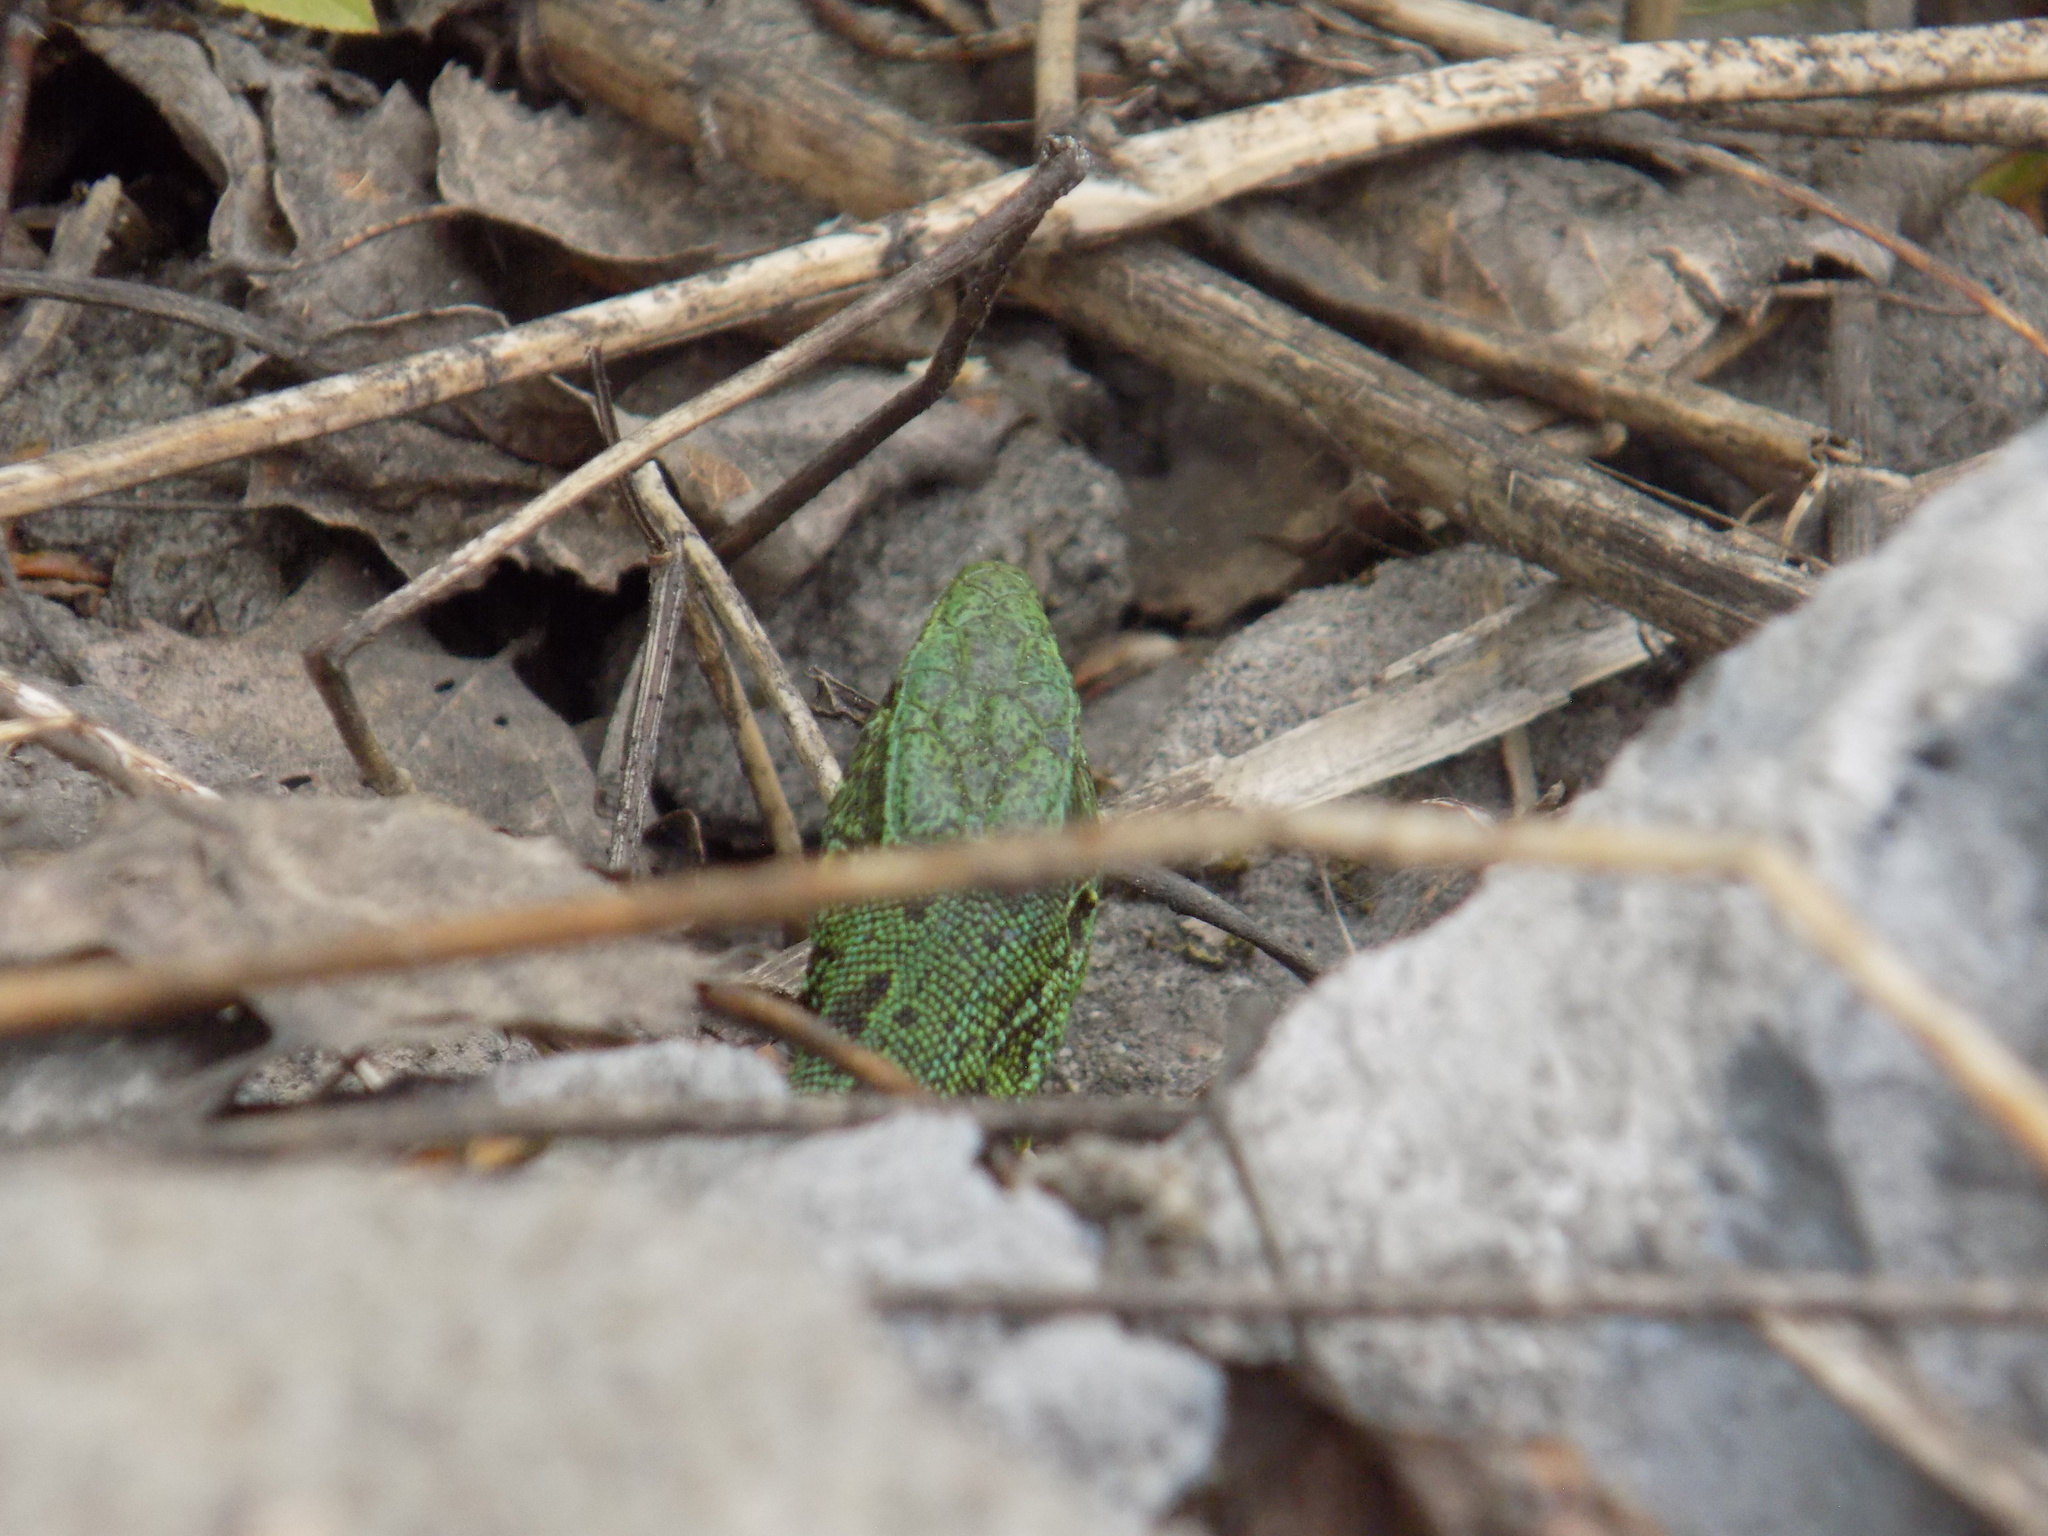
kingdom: Animalia
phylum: Chordata
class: Squamata
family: Lacertidae
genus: Lacerta
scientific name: Lacerta agilis
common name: Sand lizard
